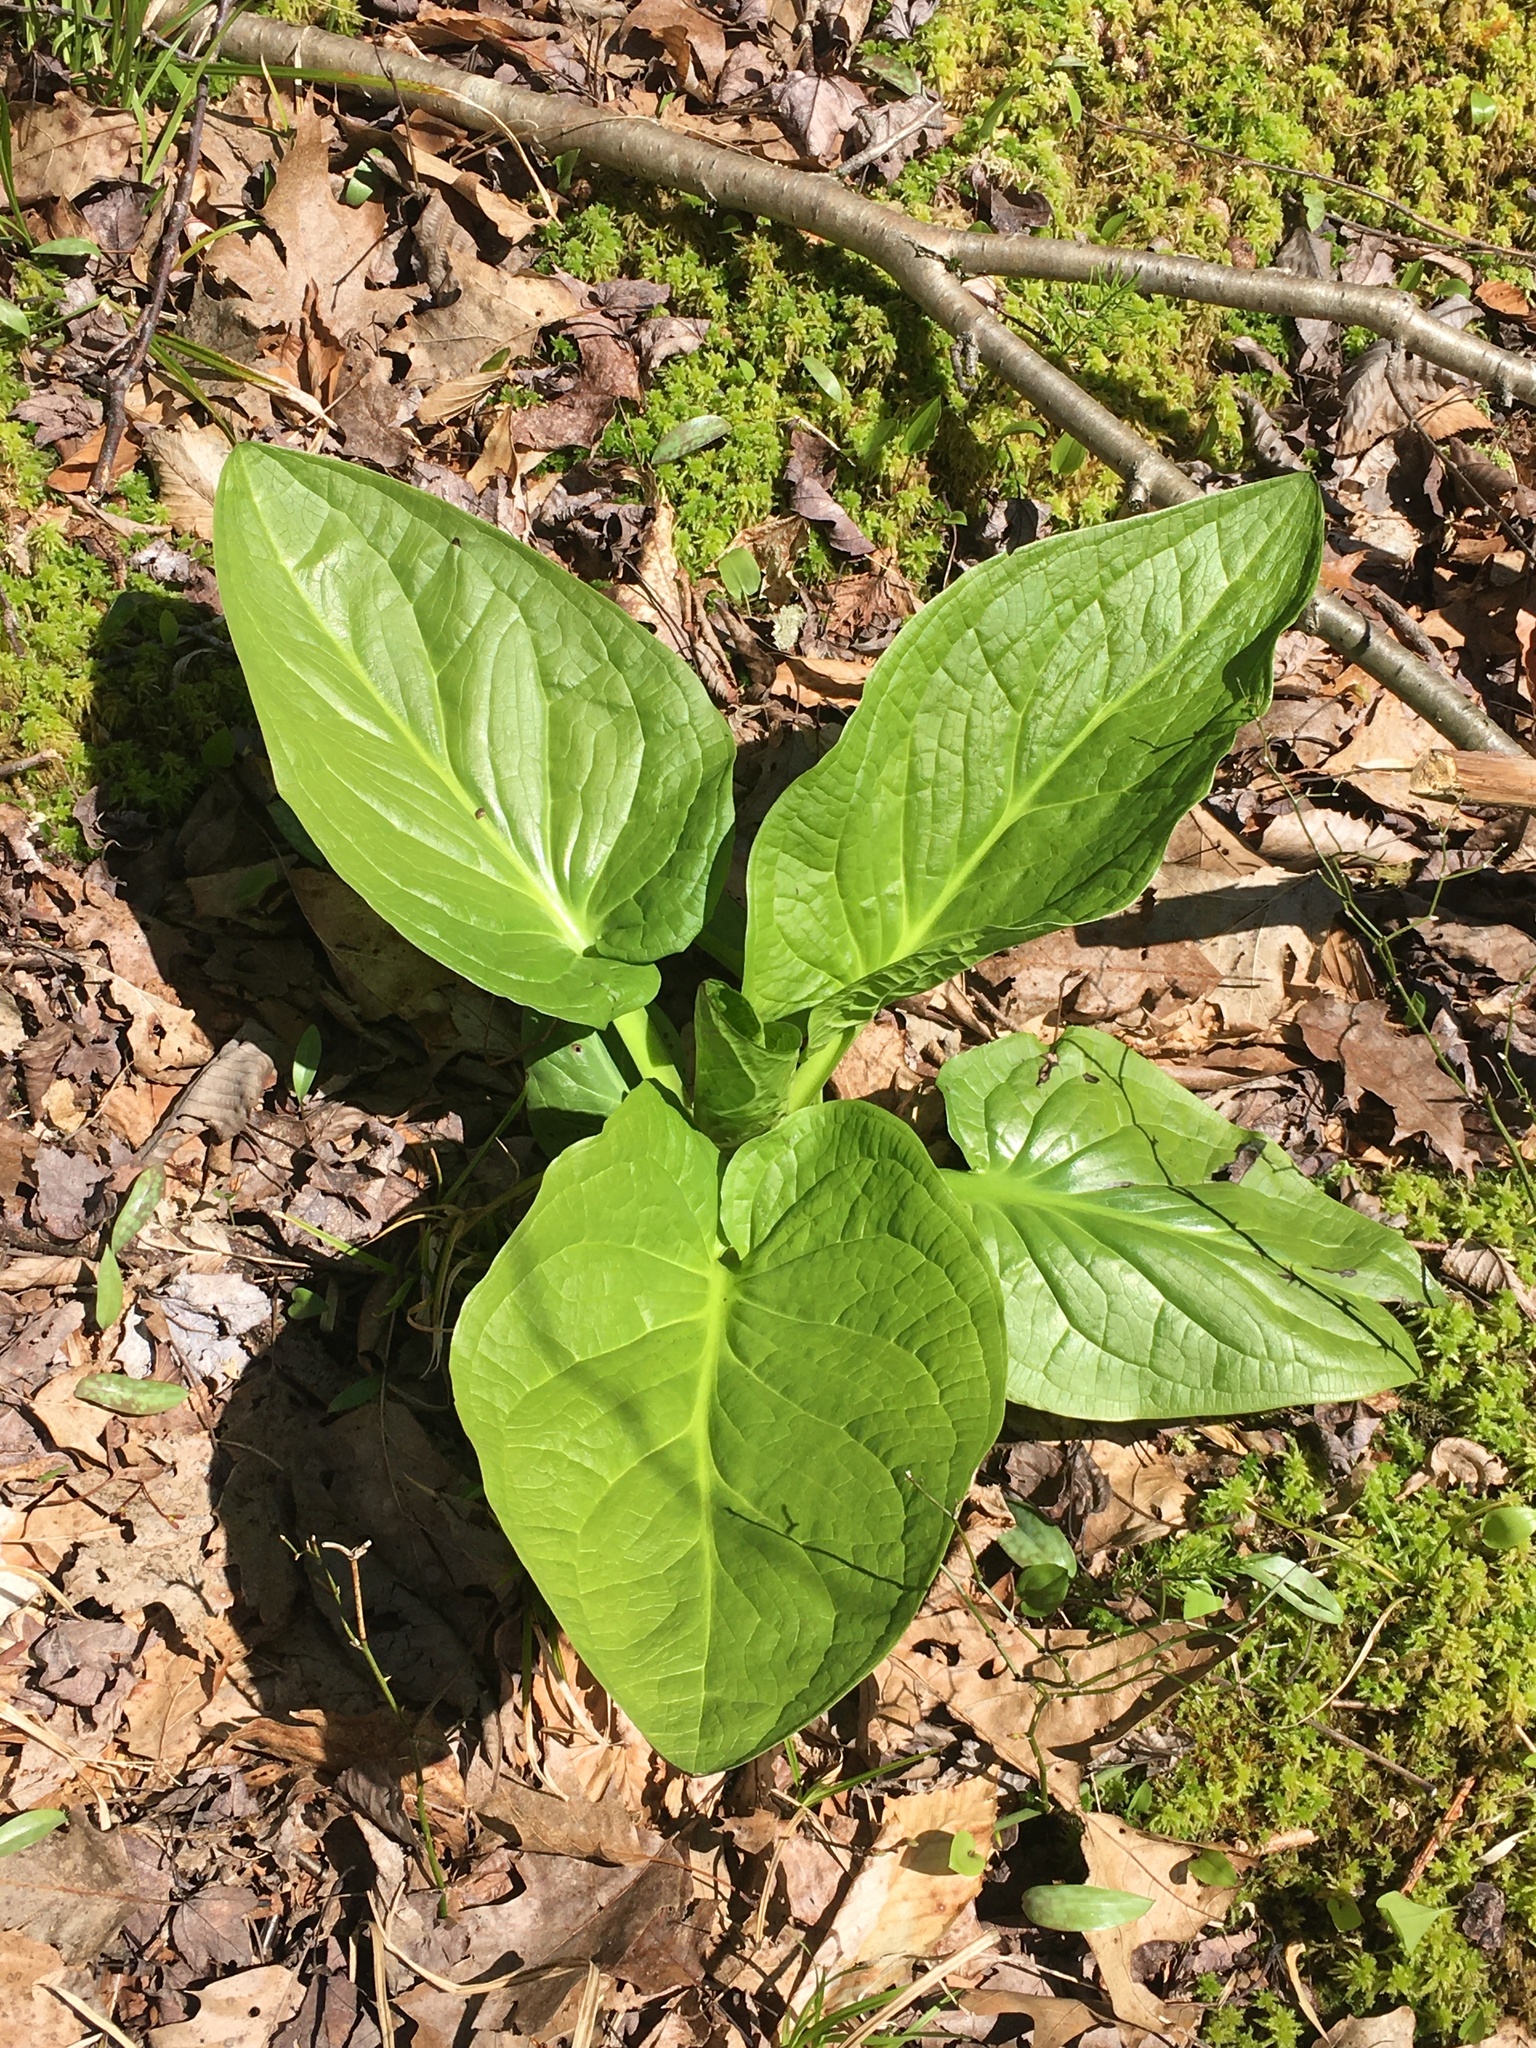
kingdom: Plantae
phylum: Tracheophyta
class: Liliopsida
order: Alismatales
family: Araceae
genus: Symplocarpus
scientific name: Symplocarpus foetidus
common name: Eastern skunk cabbage
